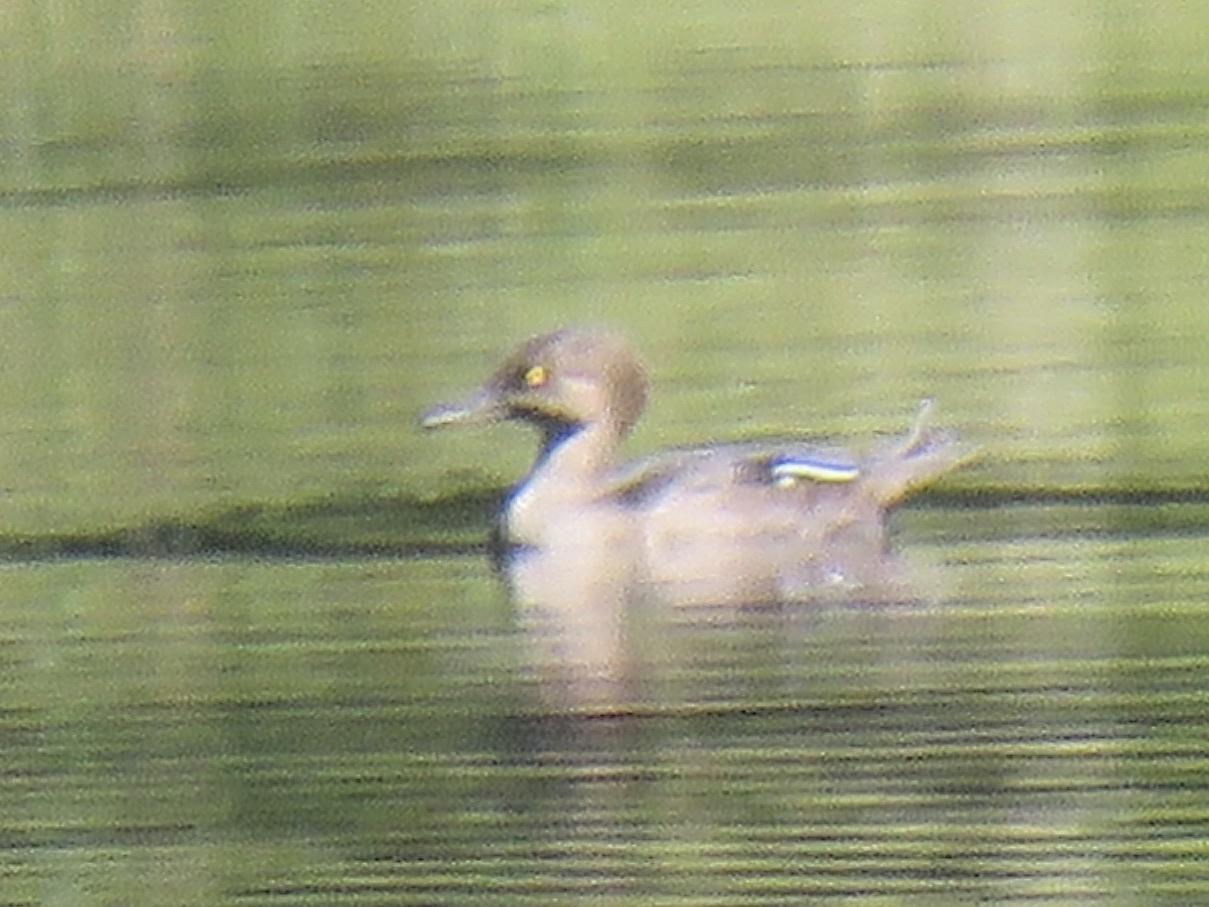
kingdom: Animalia
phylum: Chordata
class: Aves
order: Anseriformes
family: Anatidae
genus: Lophodytes
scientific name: Lophodytes cucullatus
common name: Hooded merganser
